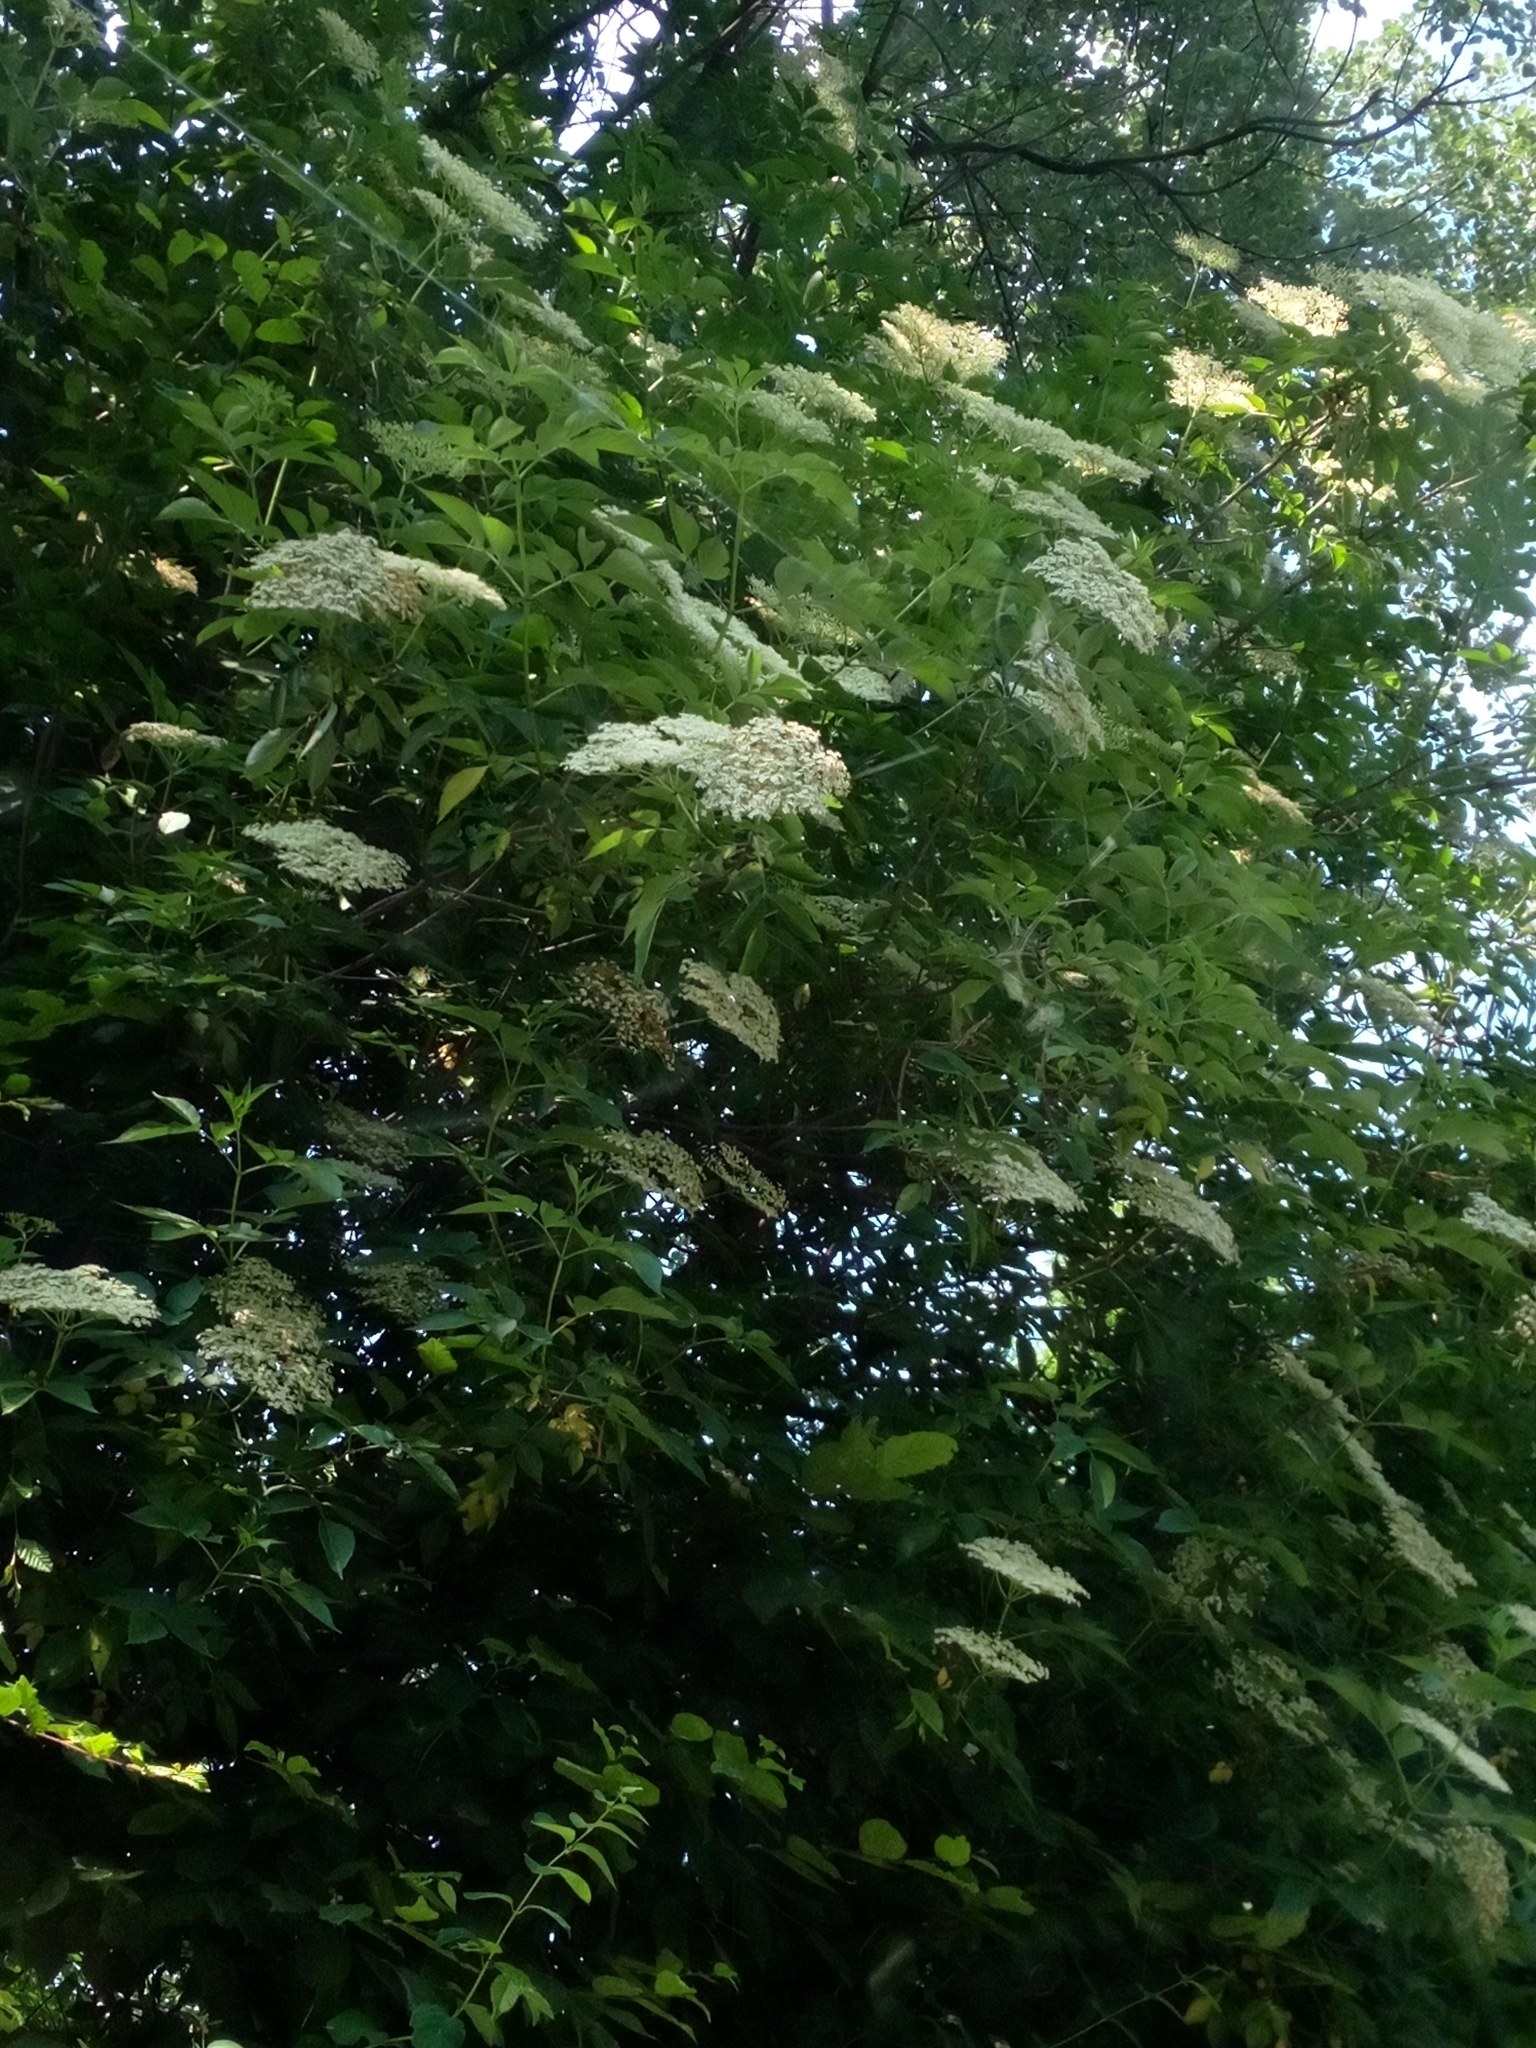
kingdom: Plantae
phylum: Tracheophyta
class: Magnoliopsida
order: Dipsacales
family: Viburnaceae
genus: Sambucus
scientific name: Sambucus nigra
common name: Elder
